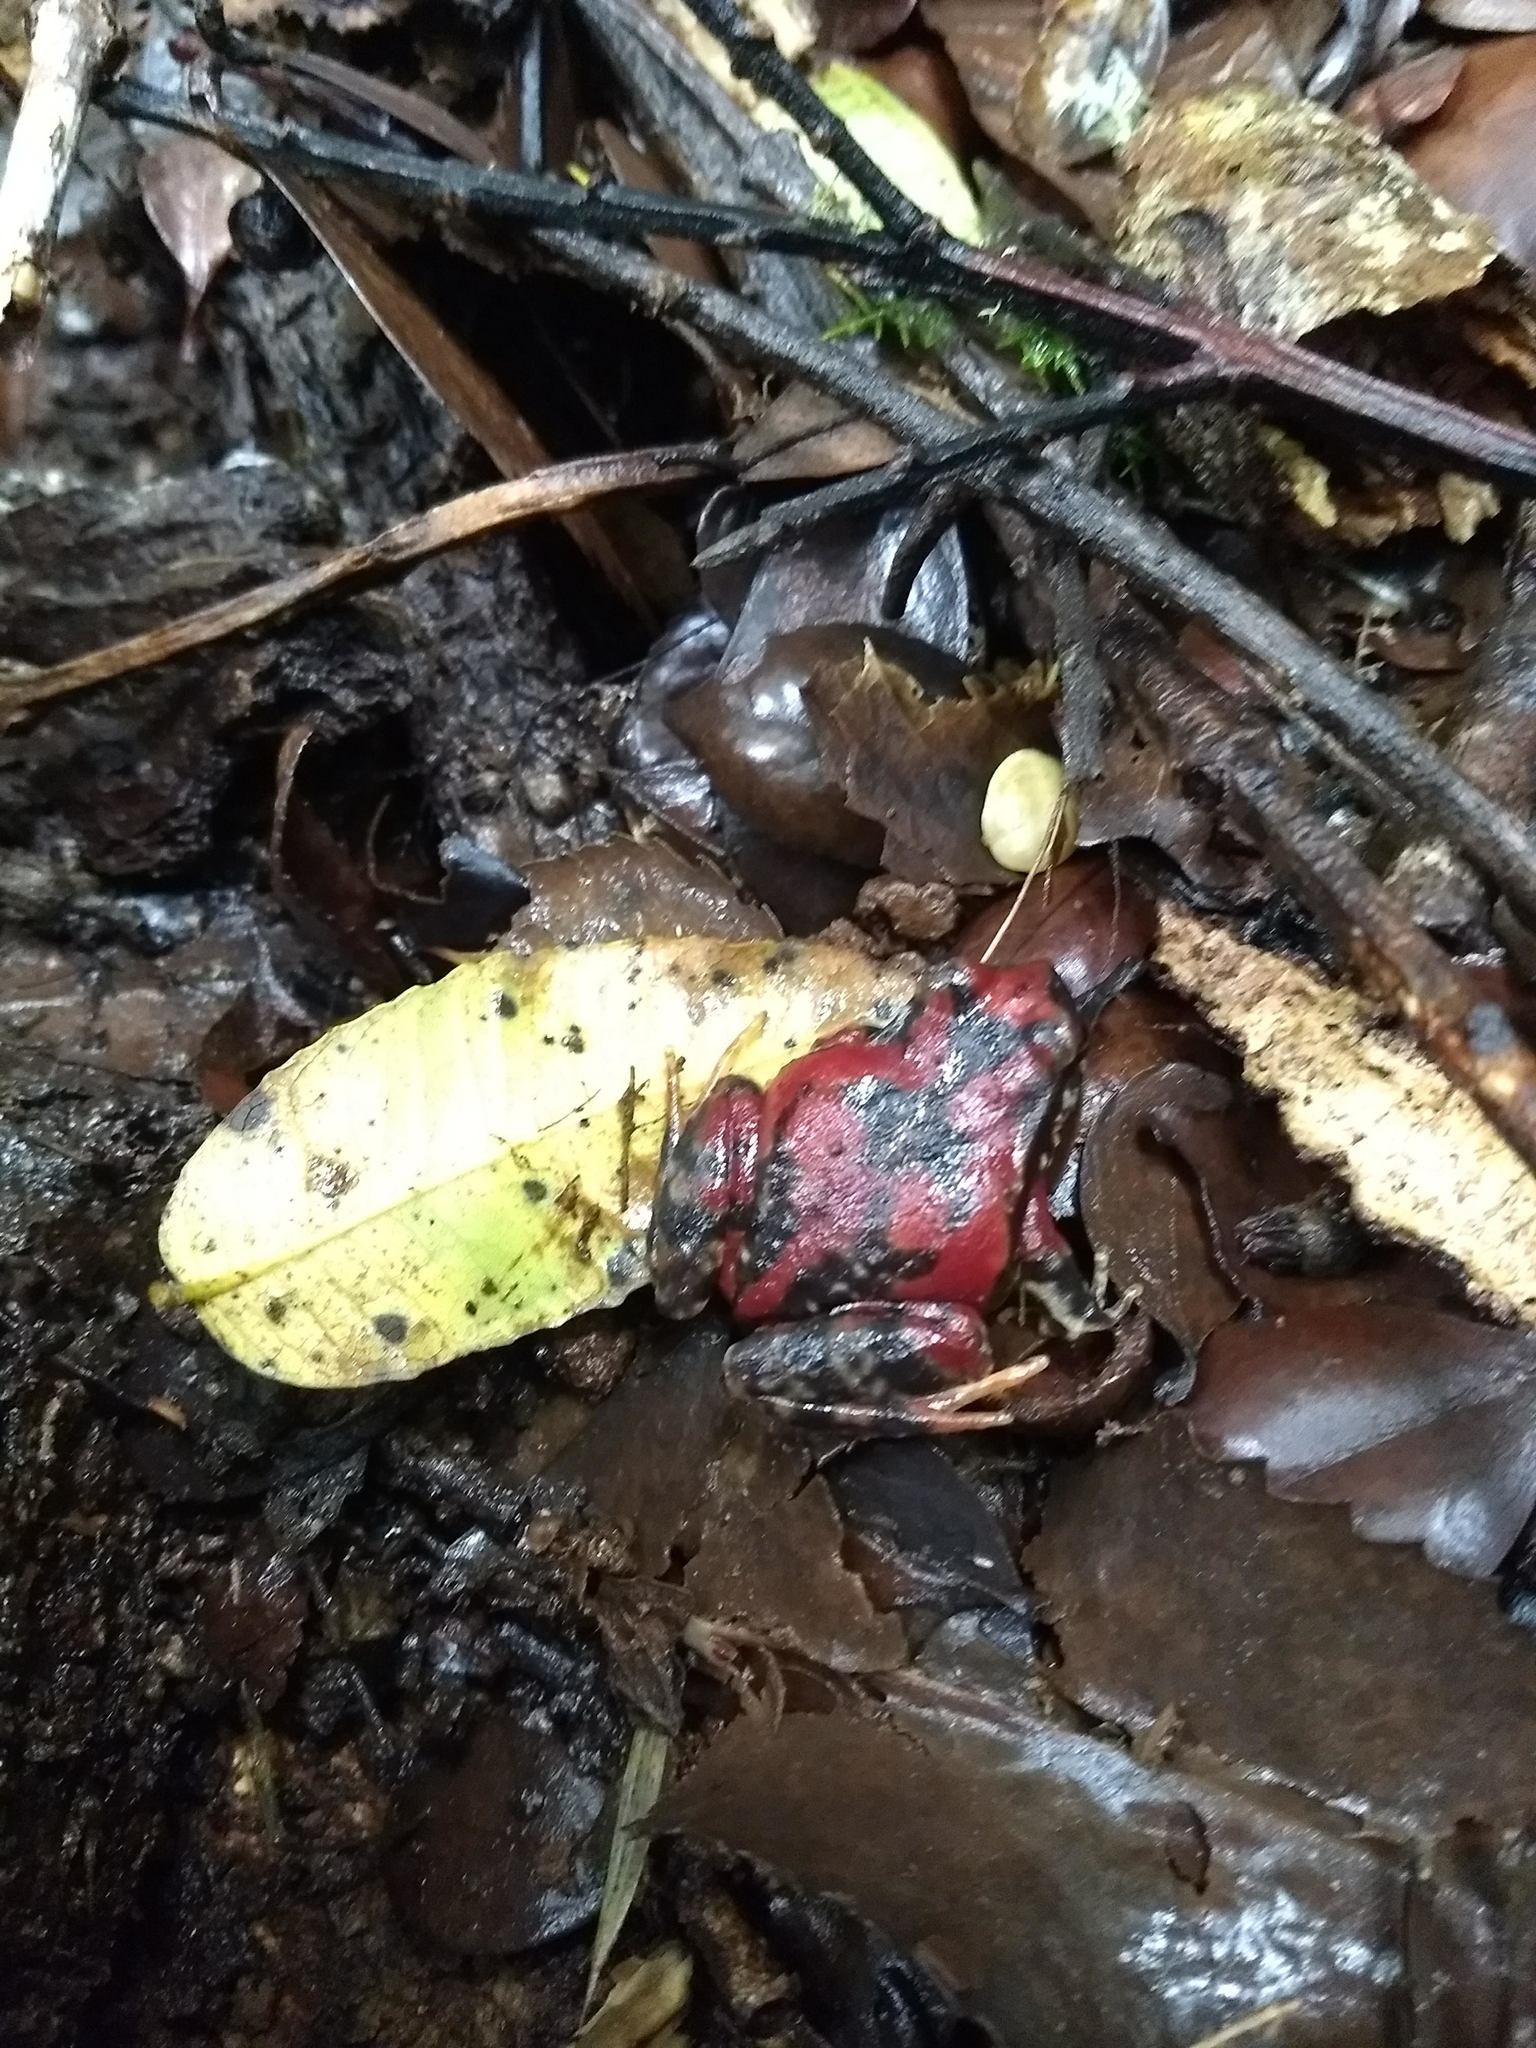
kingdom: Animalia
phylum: Chordata
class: Amphibia
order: Anura
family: Alsodidae
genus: Eupsophus
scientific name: Eupsophus roseus
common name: Rosy ground frog
